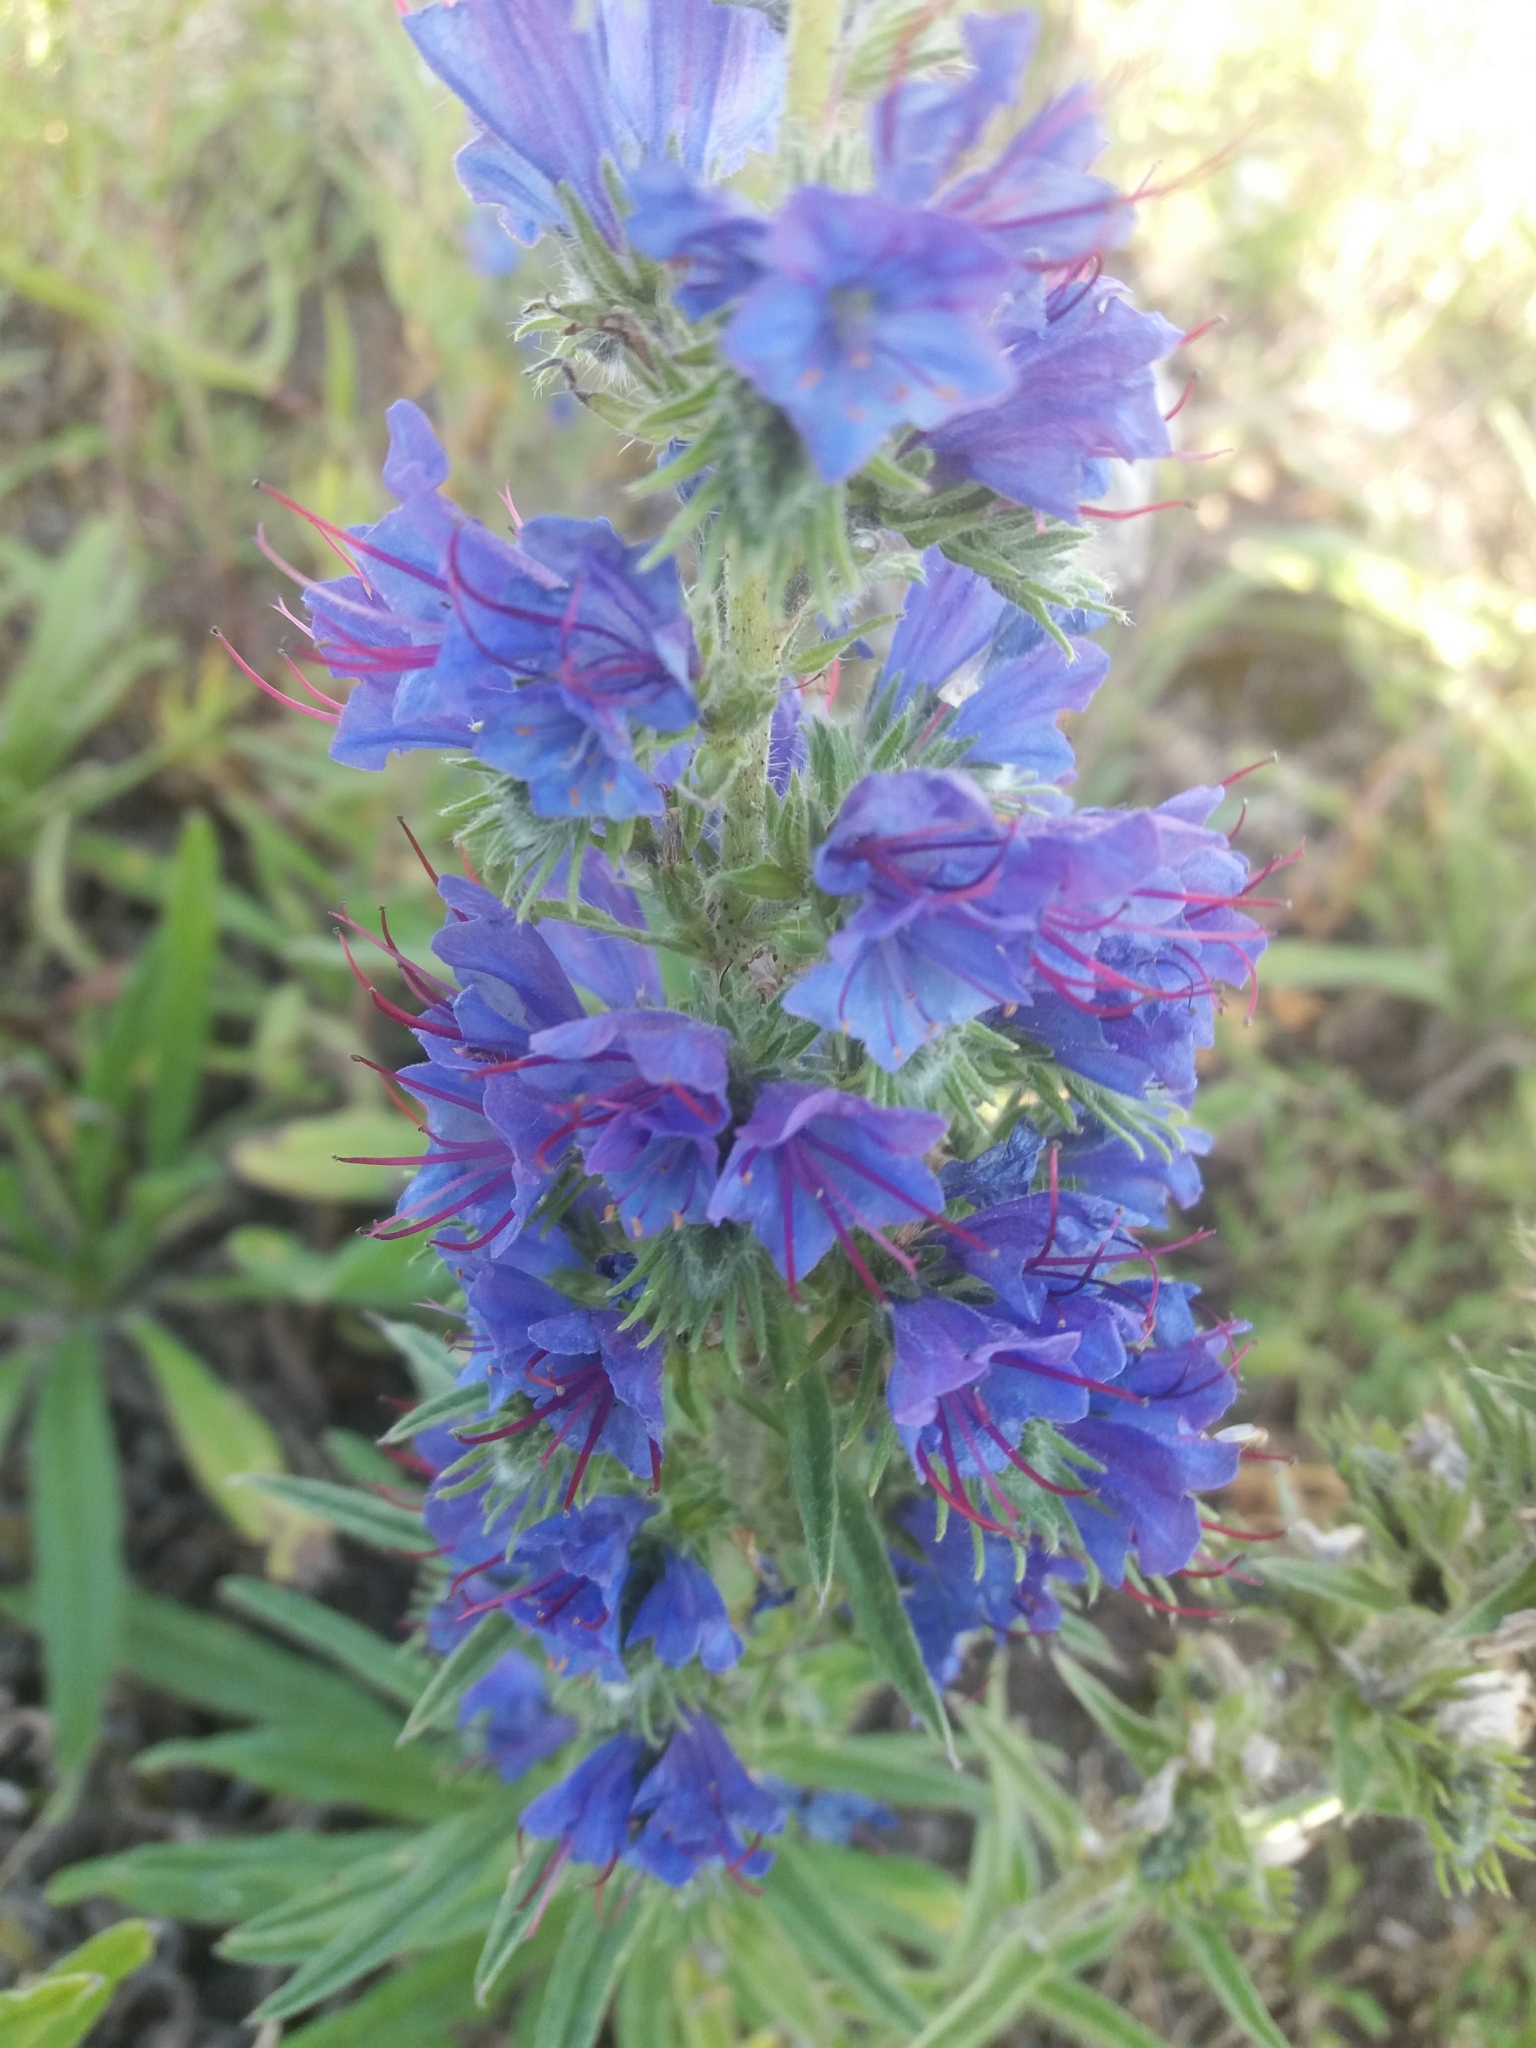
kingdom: Plantae
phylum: Tracheophyta
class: Magnoliopsida
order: Boraginales
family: Boraginaceae
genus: Echium
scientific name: Echium vulgare
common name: Common viper's bugloss
